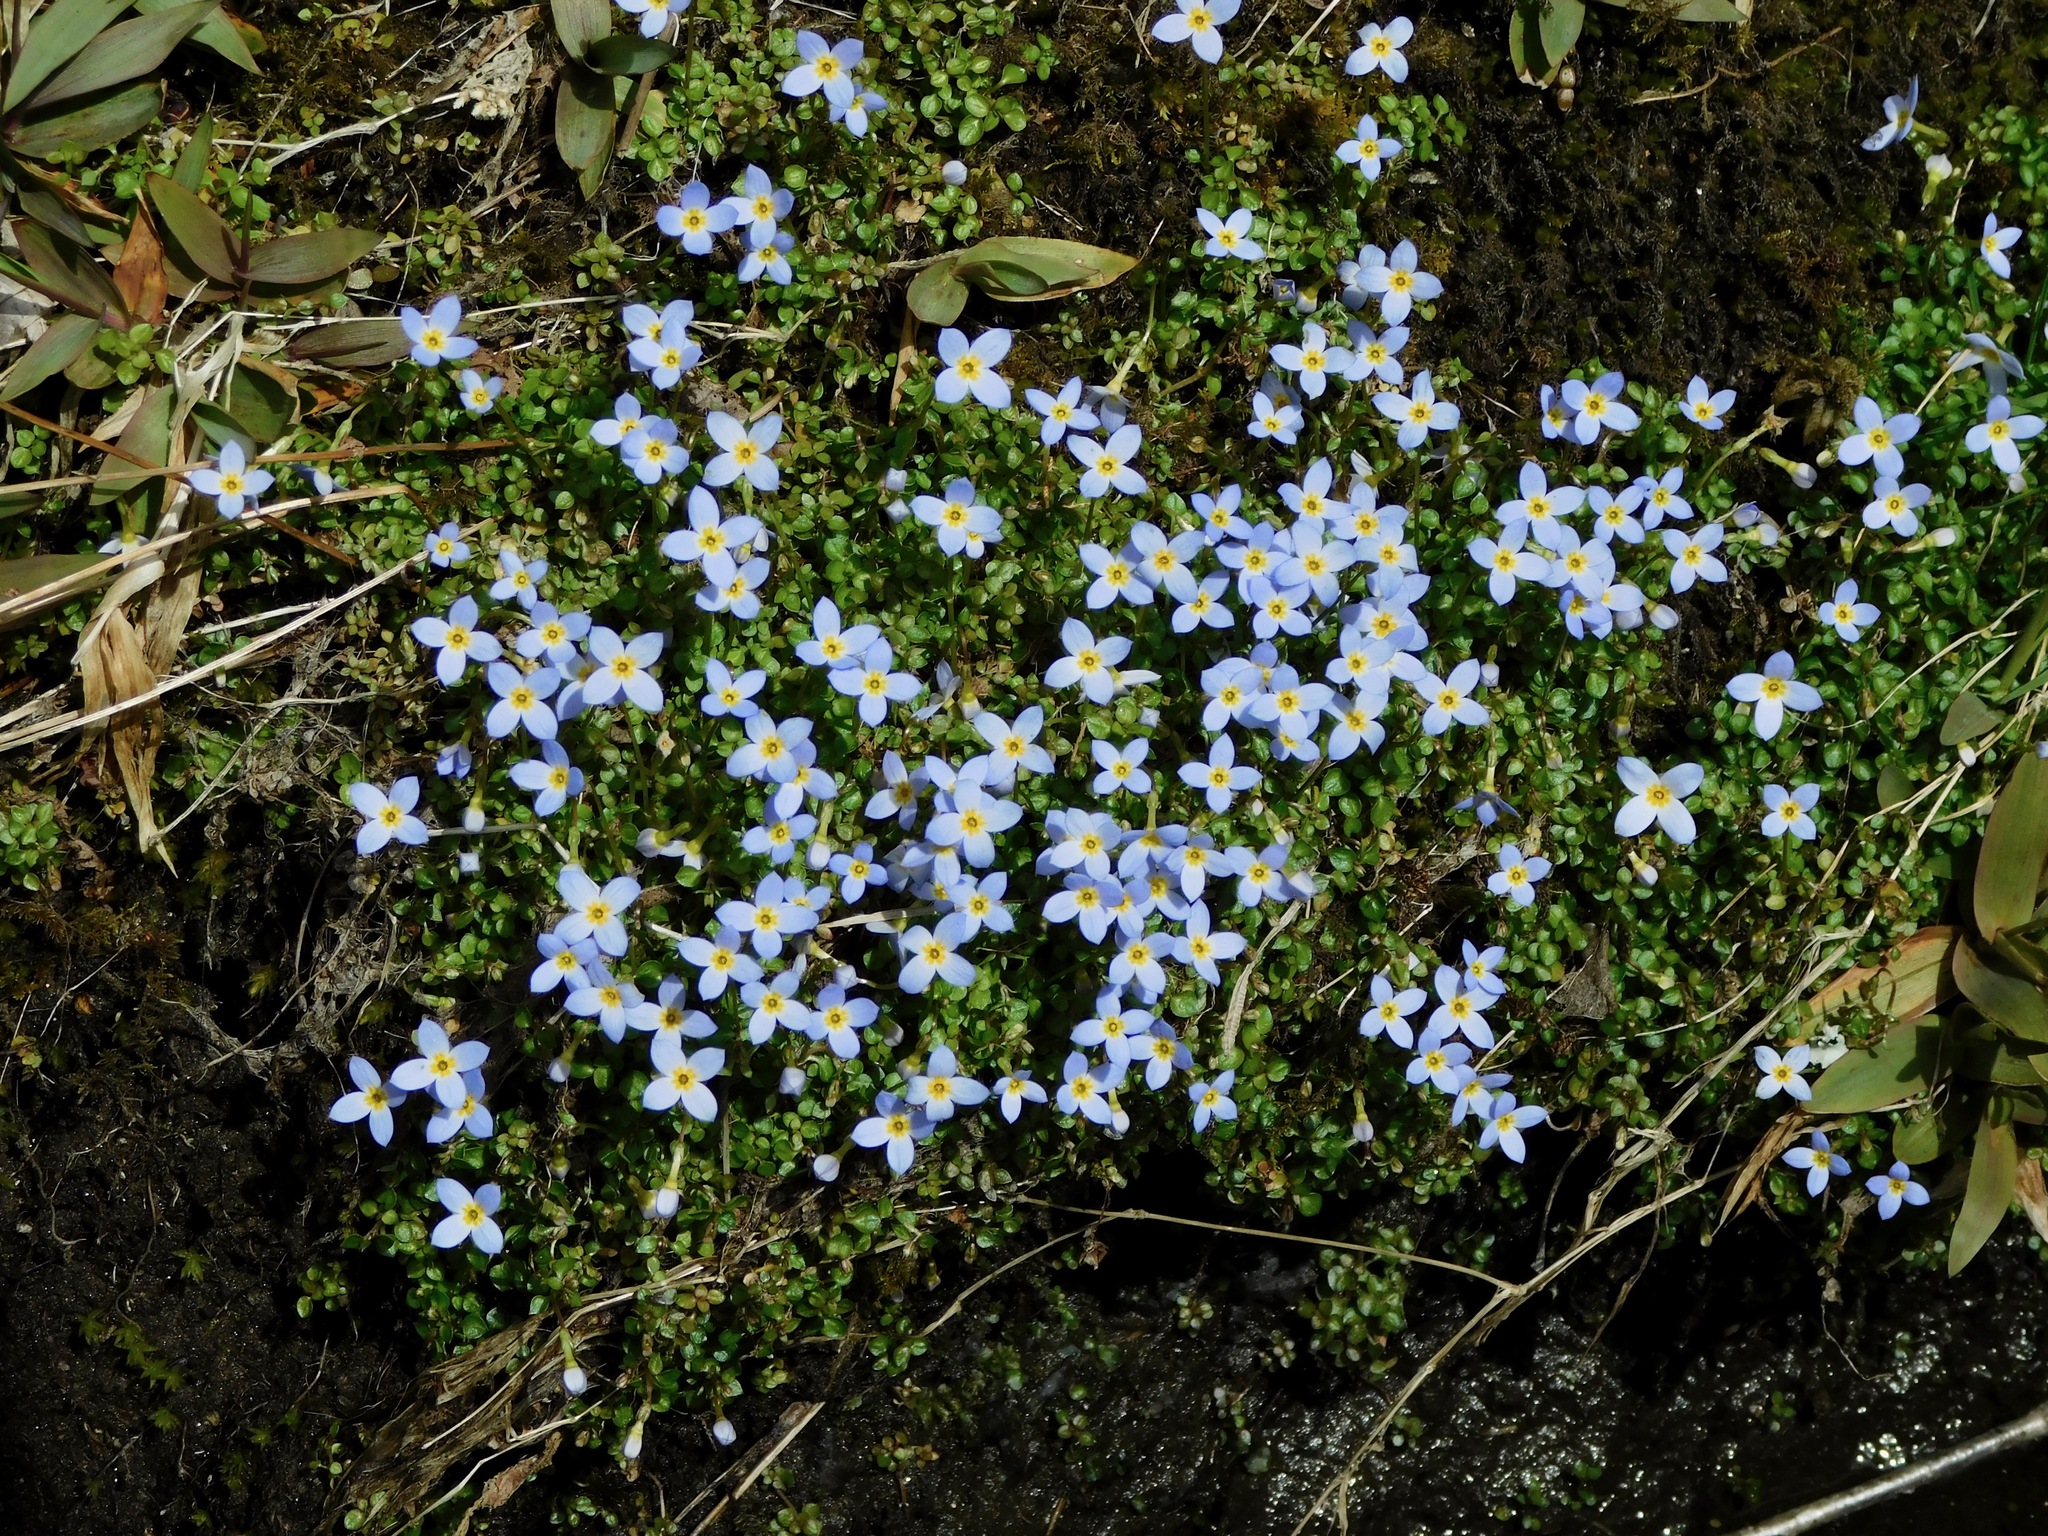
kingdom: Plantae
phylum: Tracheophyta
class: Magnoliopsida
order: Gentianales
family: Rubiaceae
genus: Houstonia
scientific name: Houstonia serpyllifolia
